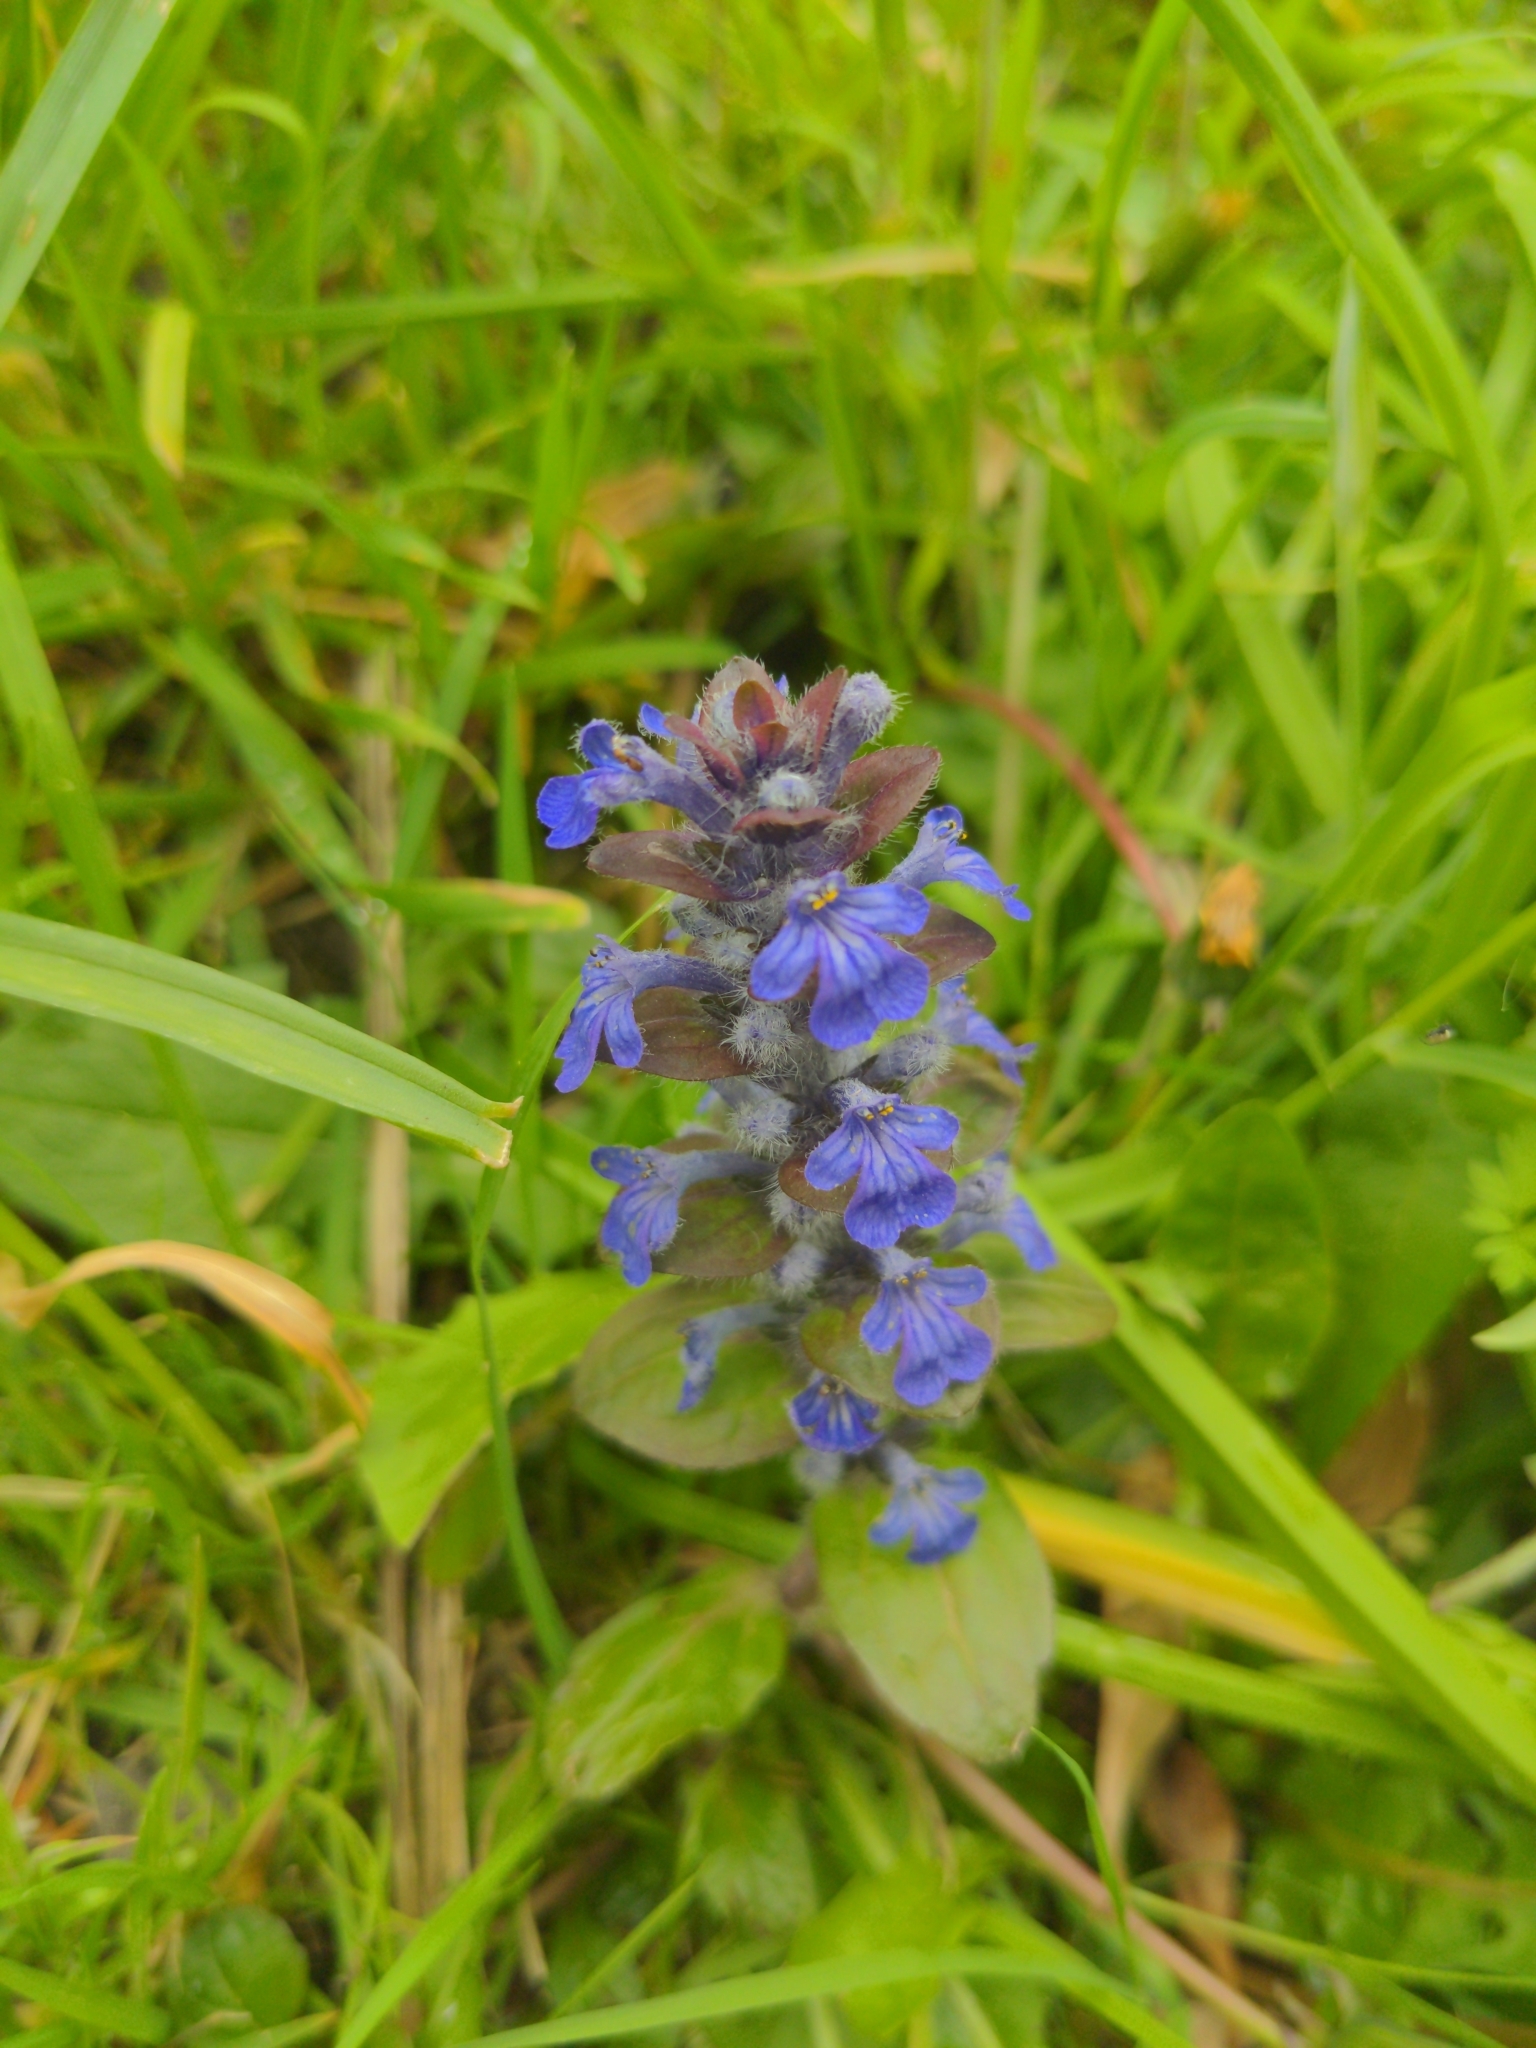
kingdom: Plantae
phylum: Tracheophyta
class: Magnoliopsida
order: Lamiales
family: Lamiaceae
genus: Ajuga
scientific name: Ajuga reptans
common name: Bugle
